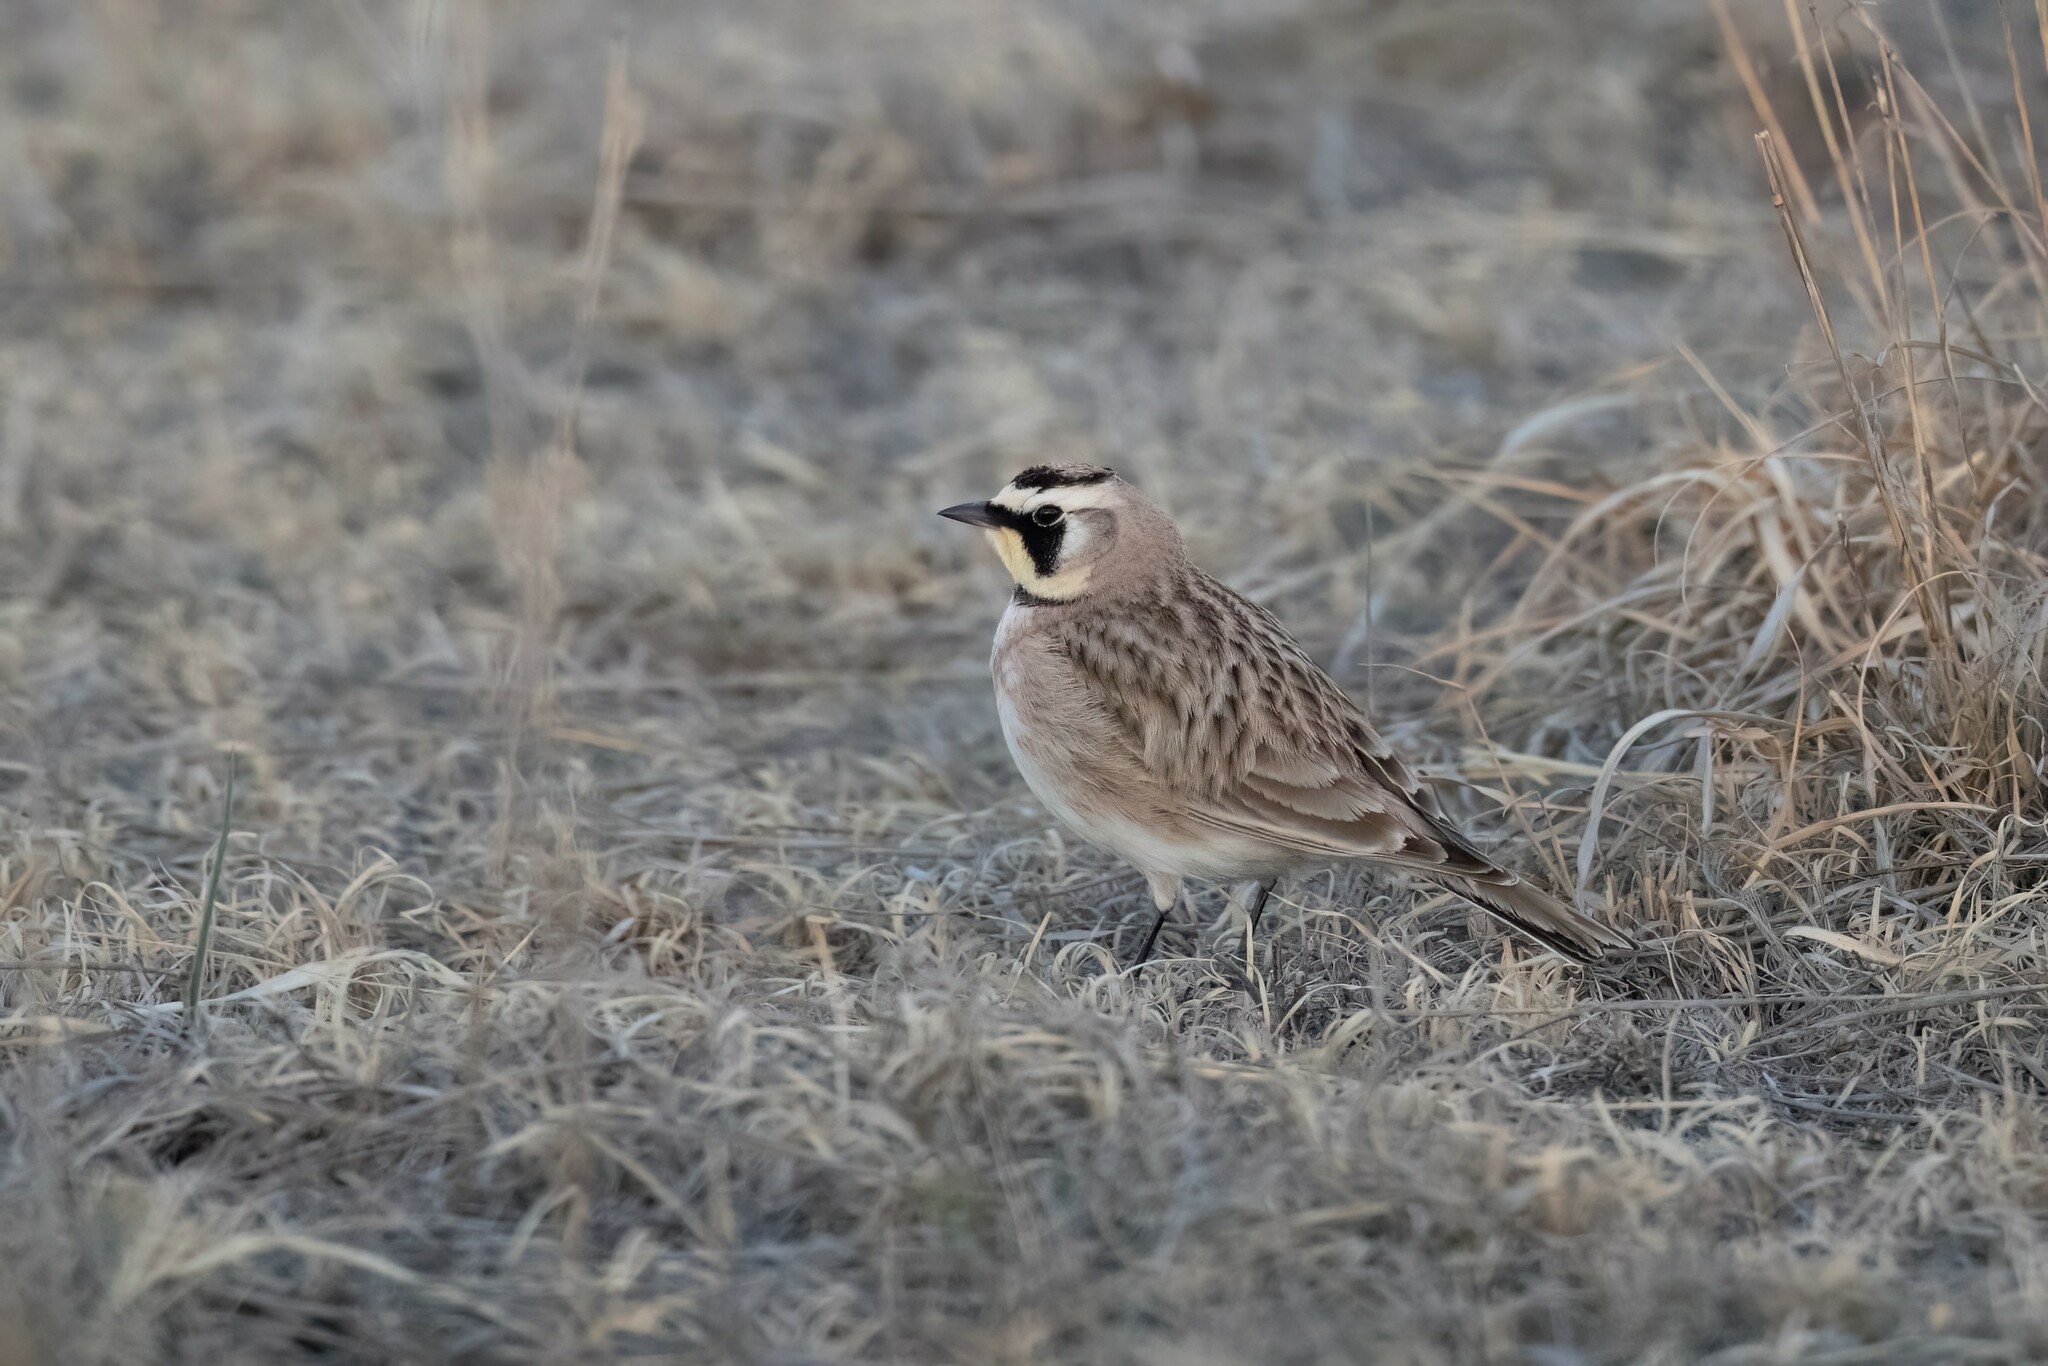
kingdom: Animalia
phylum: Chordata
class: Aves
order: Passeriformes
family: Alaudidae
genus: Eremophila
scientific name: Eremophila alpestris
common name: Horned lark
